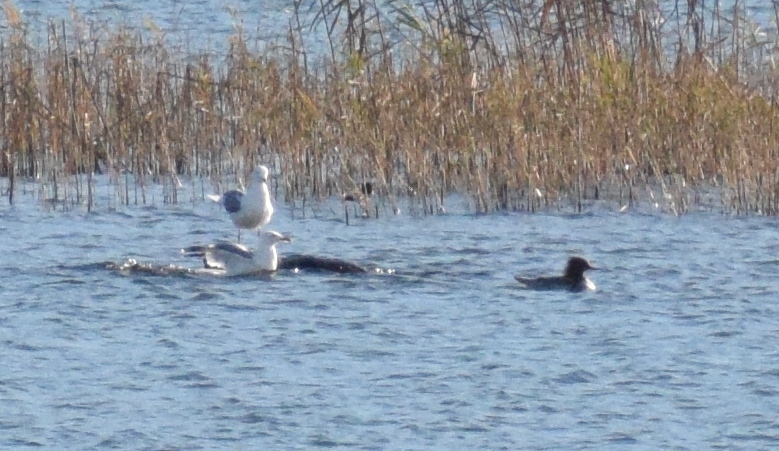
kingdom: Animalia
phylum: Chordata
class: Aves
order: Anseriformes
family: Anatidae
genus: Mergus
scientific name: Mergus merganser
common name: Common merganser
